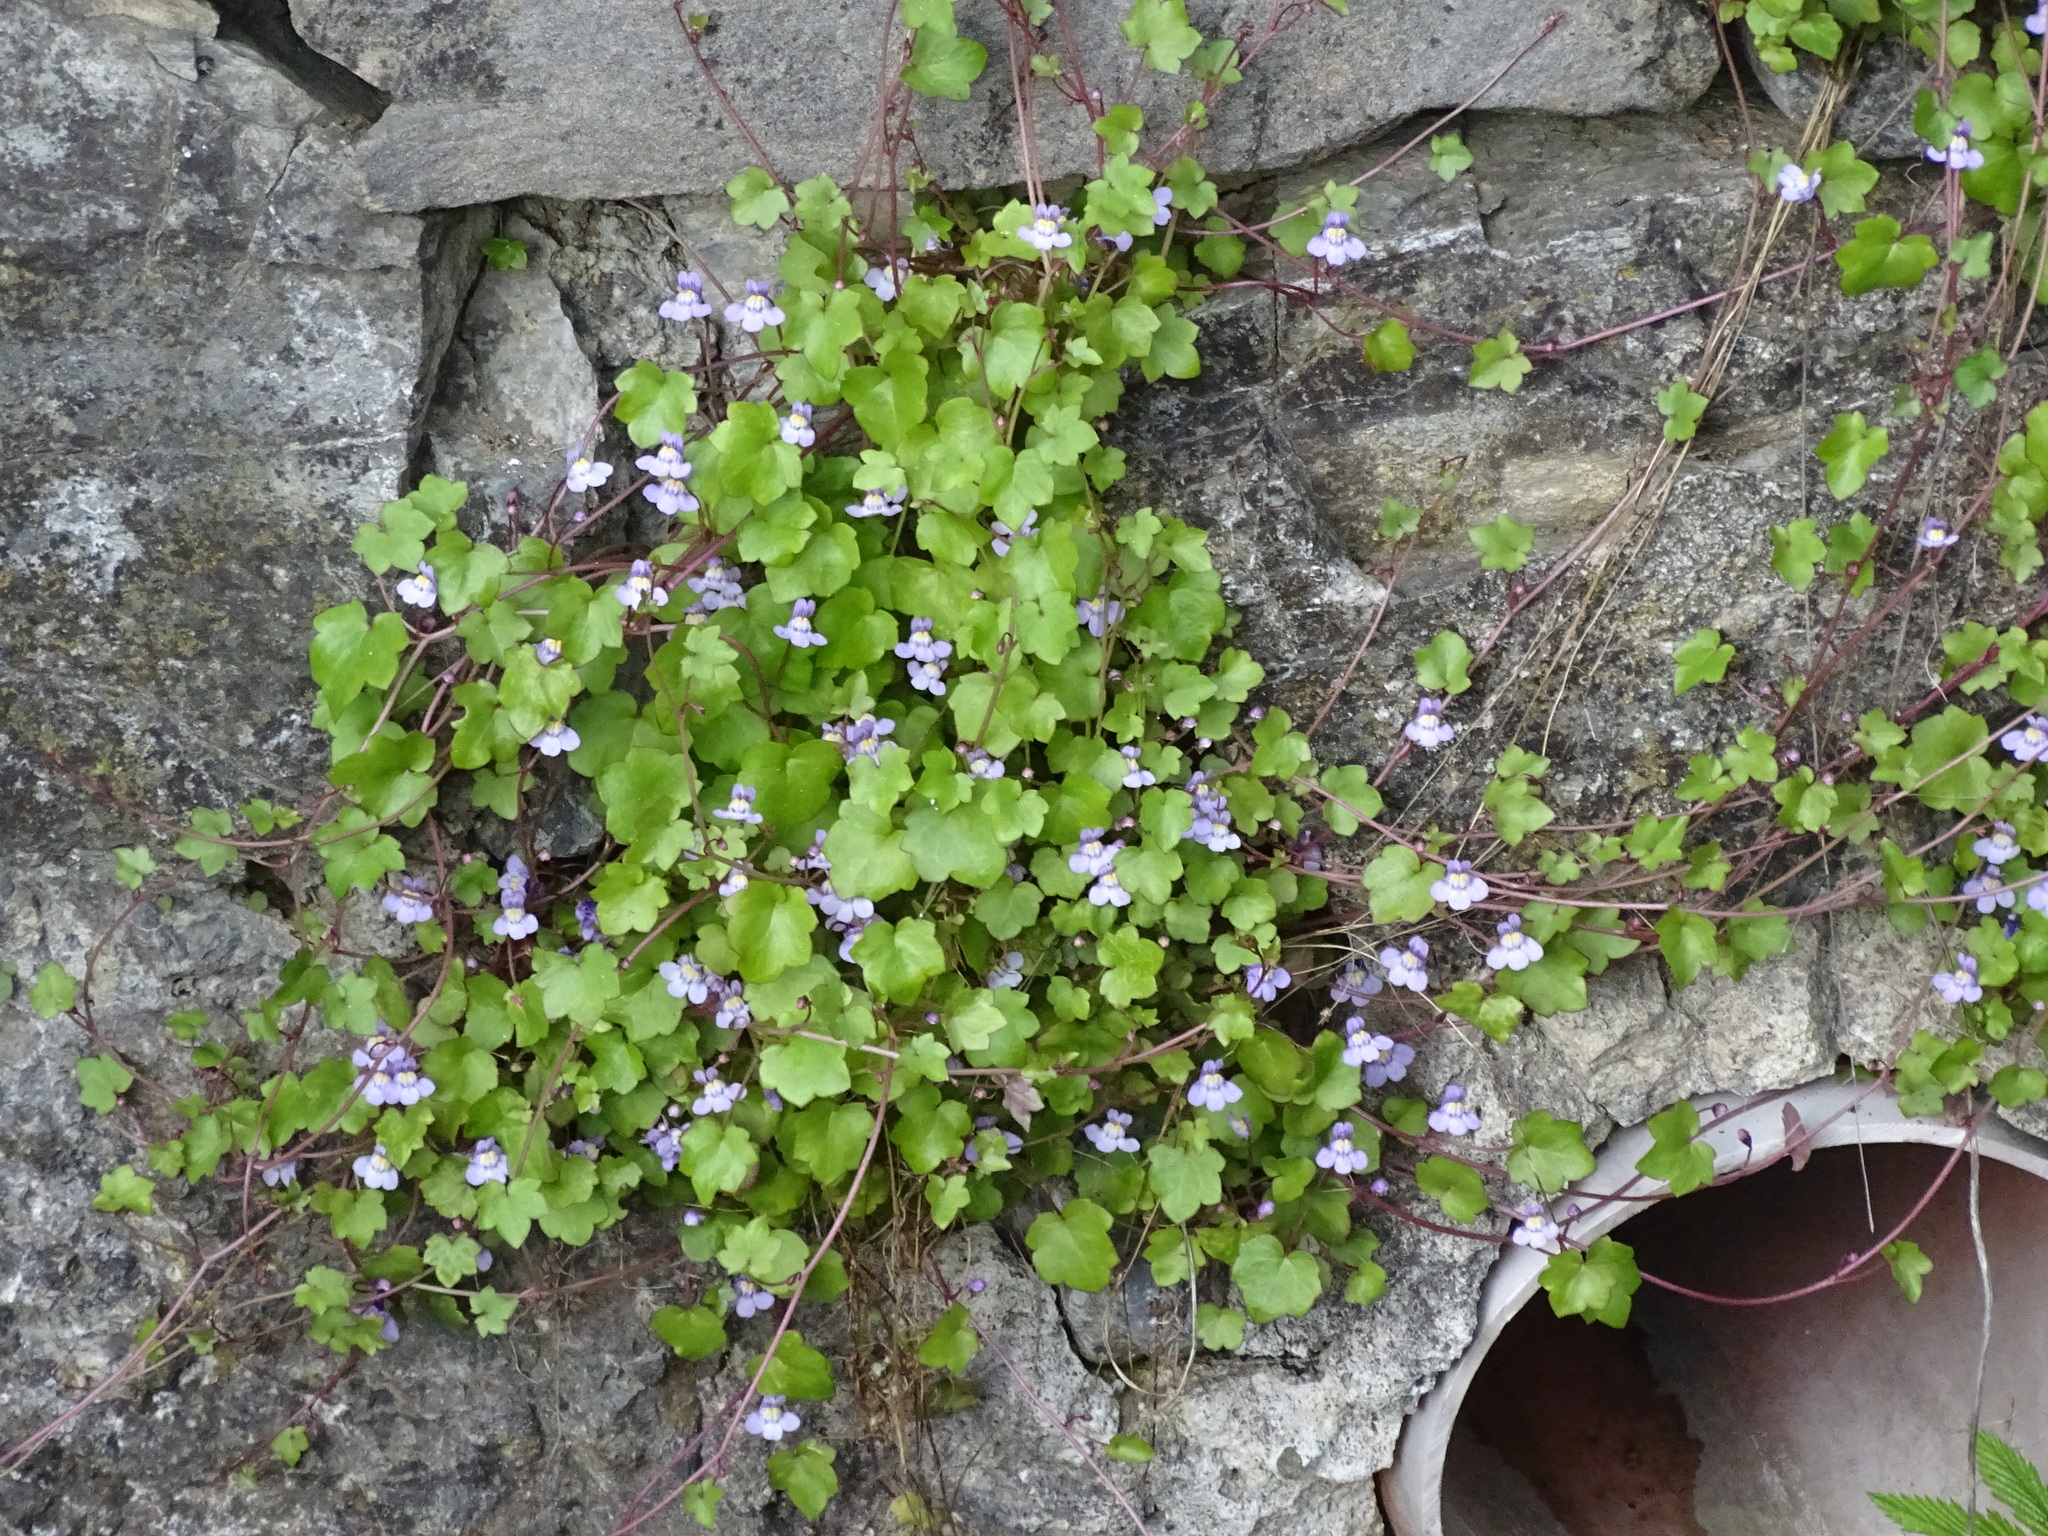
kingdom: Plantae
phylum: Tracheophyta
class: Magnoliopsida
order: Lamiales
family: Plantaginaceae
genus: Cymbalaria
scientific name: Cymbalaria muralis
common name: Ivy-leaved toadflax
